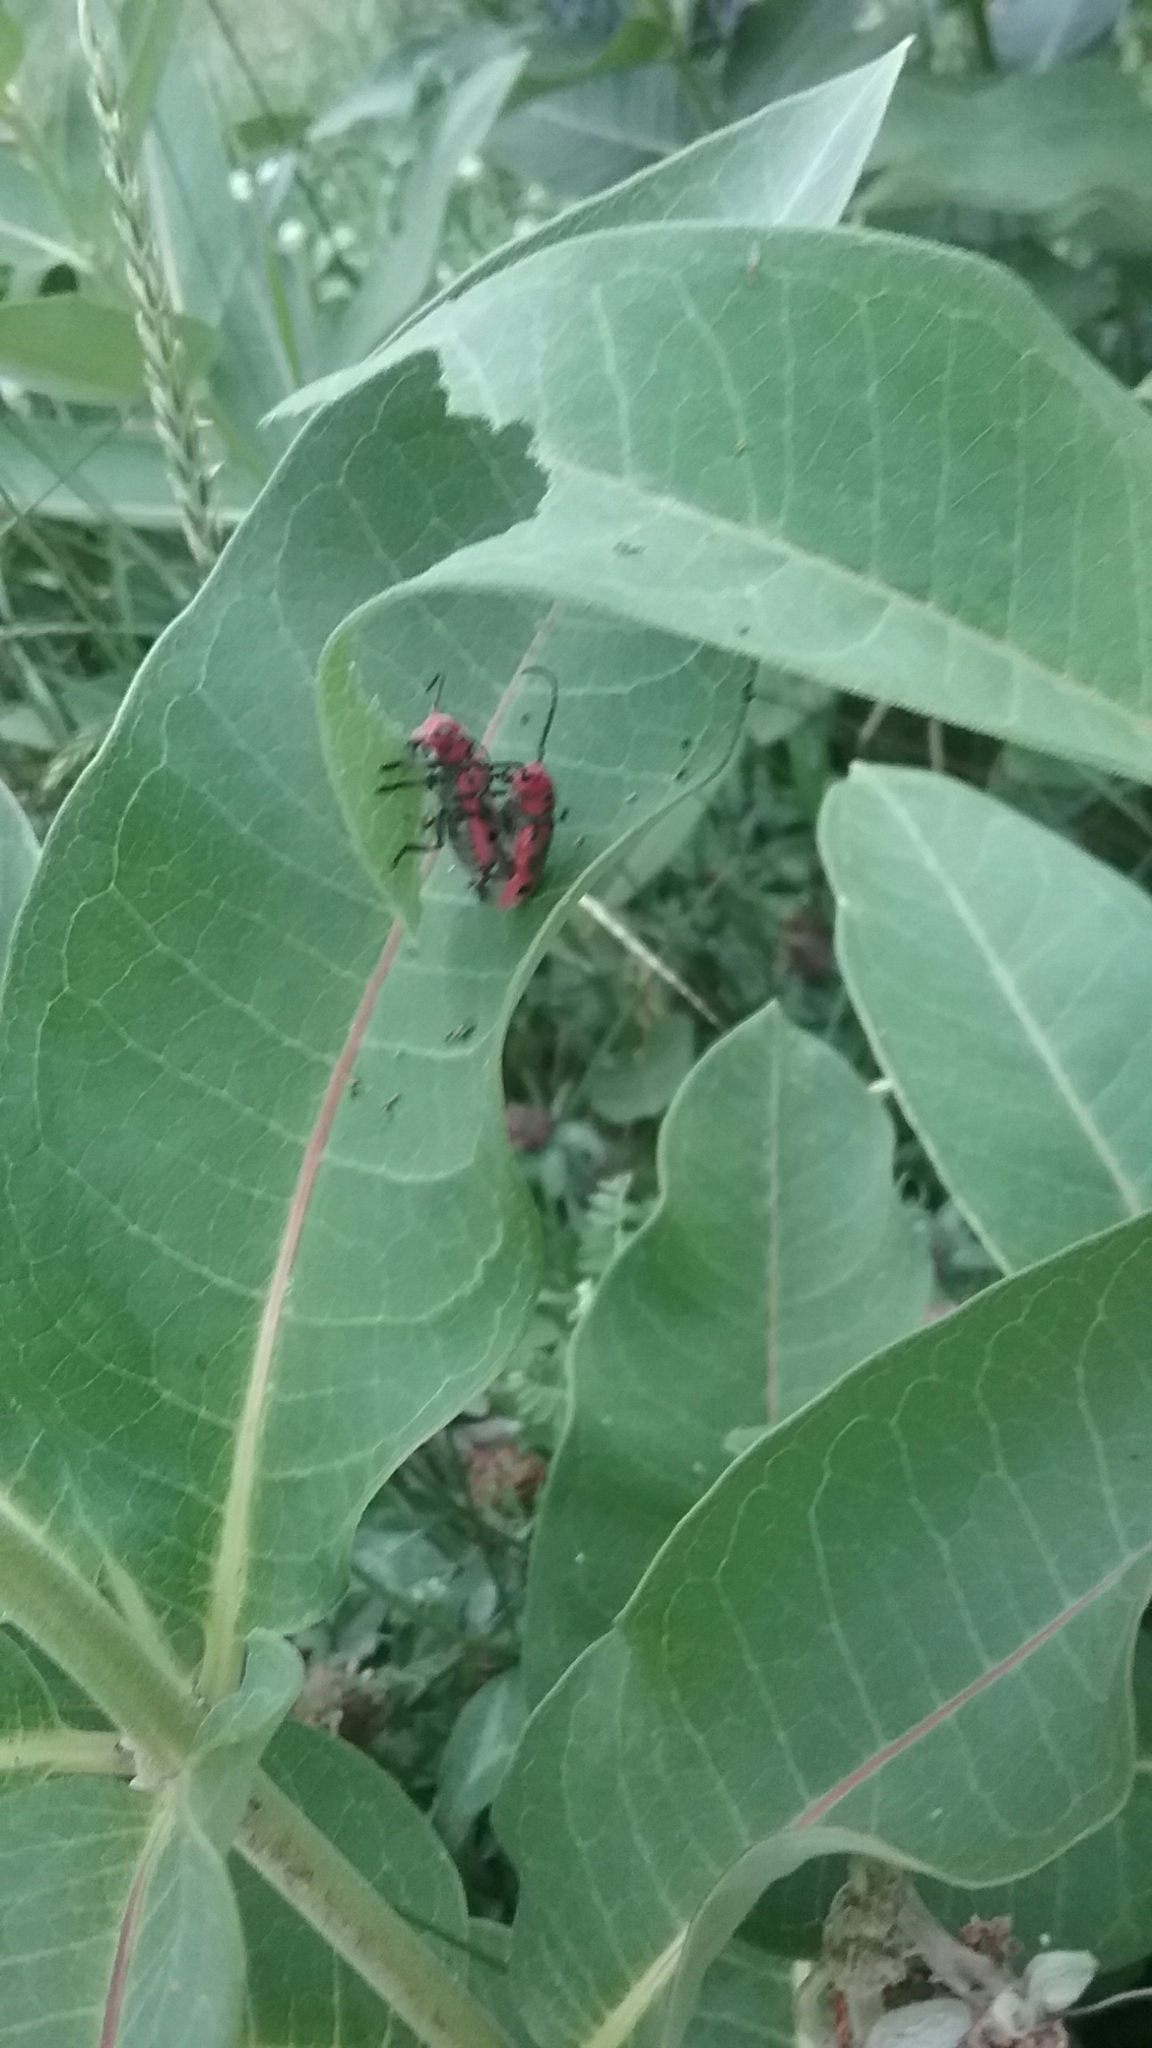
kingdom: Animalia
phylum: Arthropoda
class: Insecta
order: Coleoptera
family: Cerambycidae
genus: Tetraopes
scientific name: Tetraopes tetrophthalmus
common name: Red milkweed beetle
